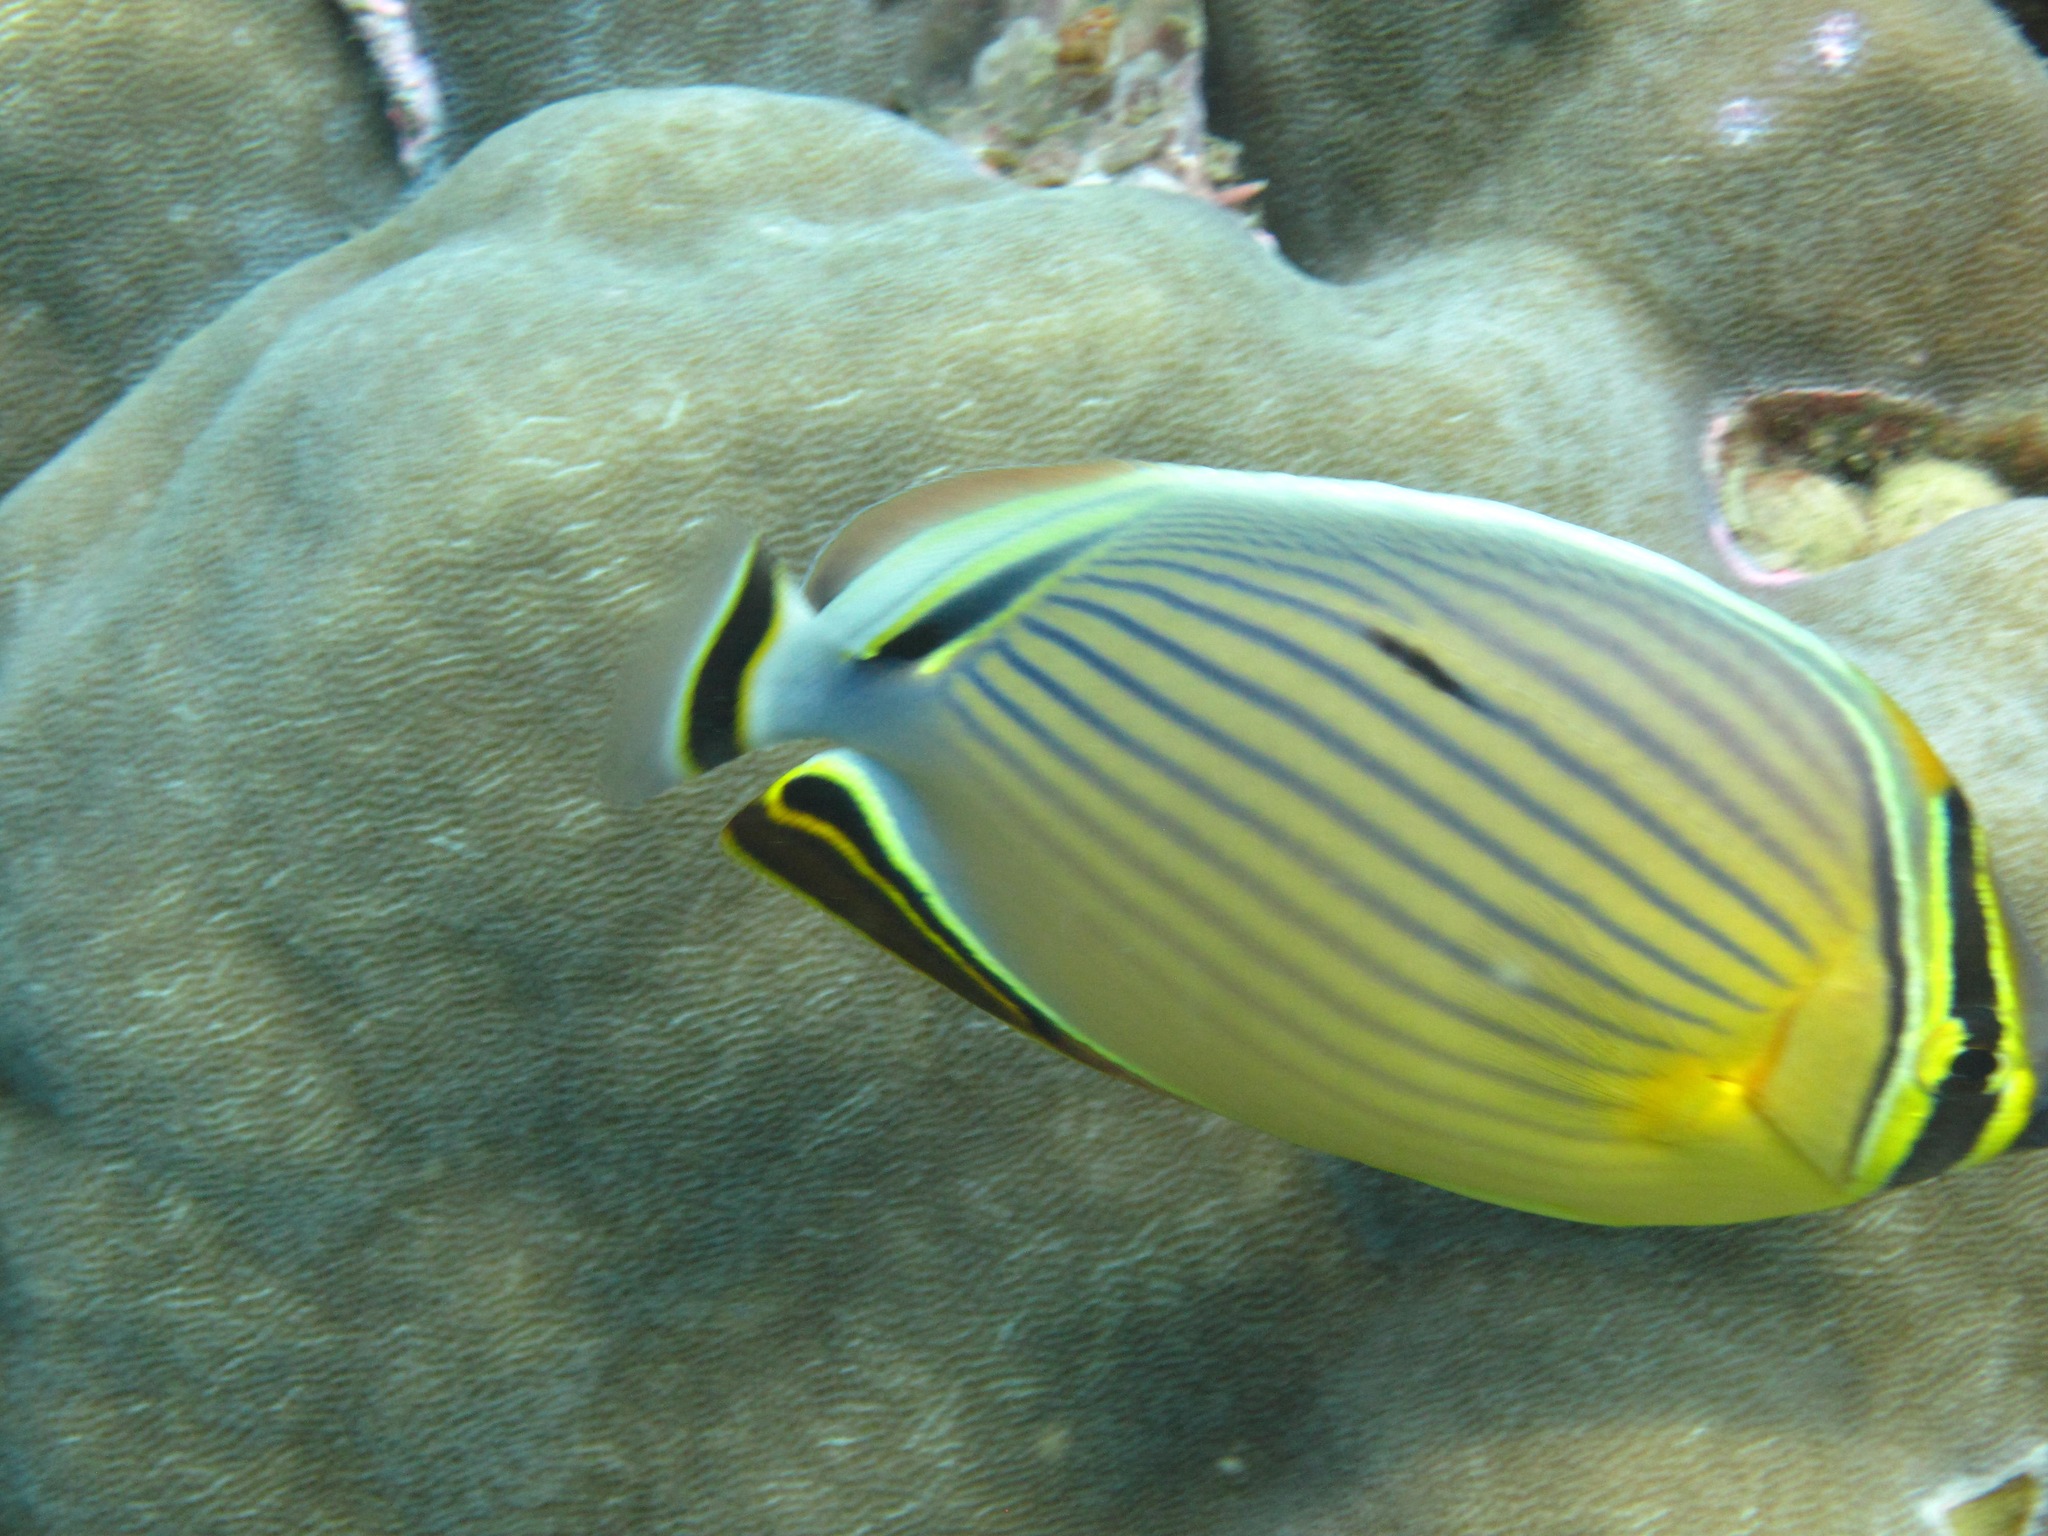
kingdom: Animalia
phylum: Chordata
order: Perciformes
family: Chaetodontidae
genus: Chaetodon
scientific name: Chaetodon lunulatus
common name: Redfin butterflyfish
